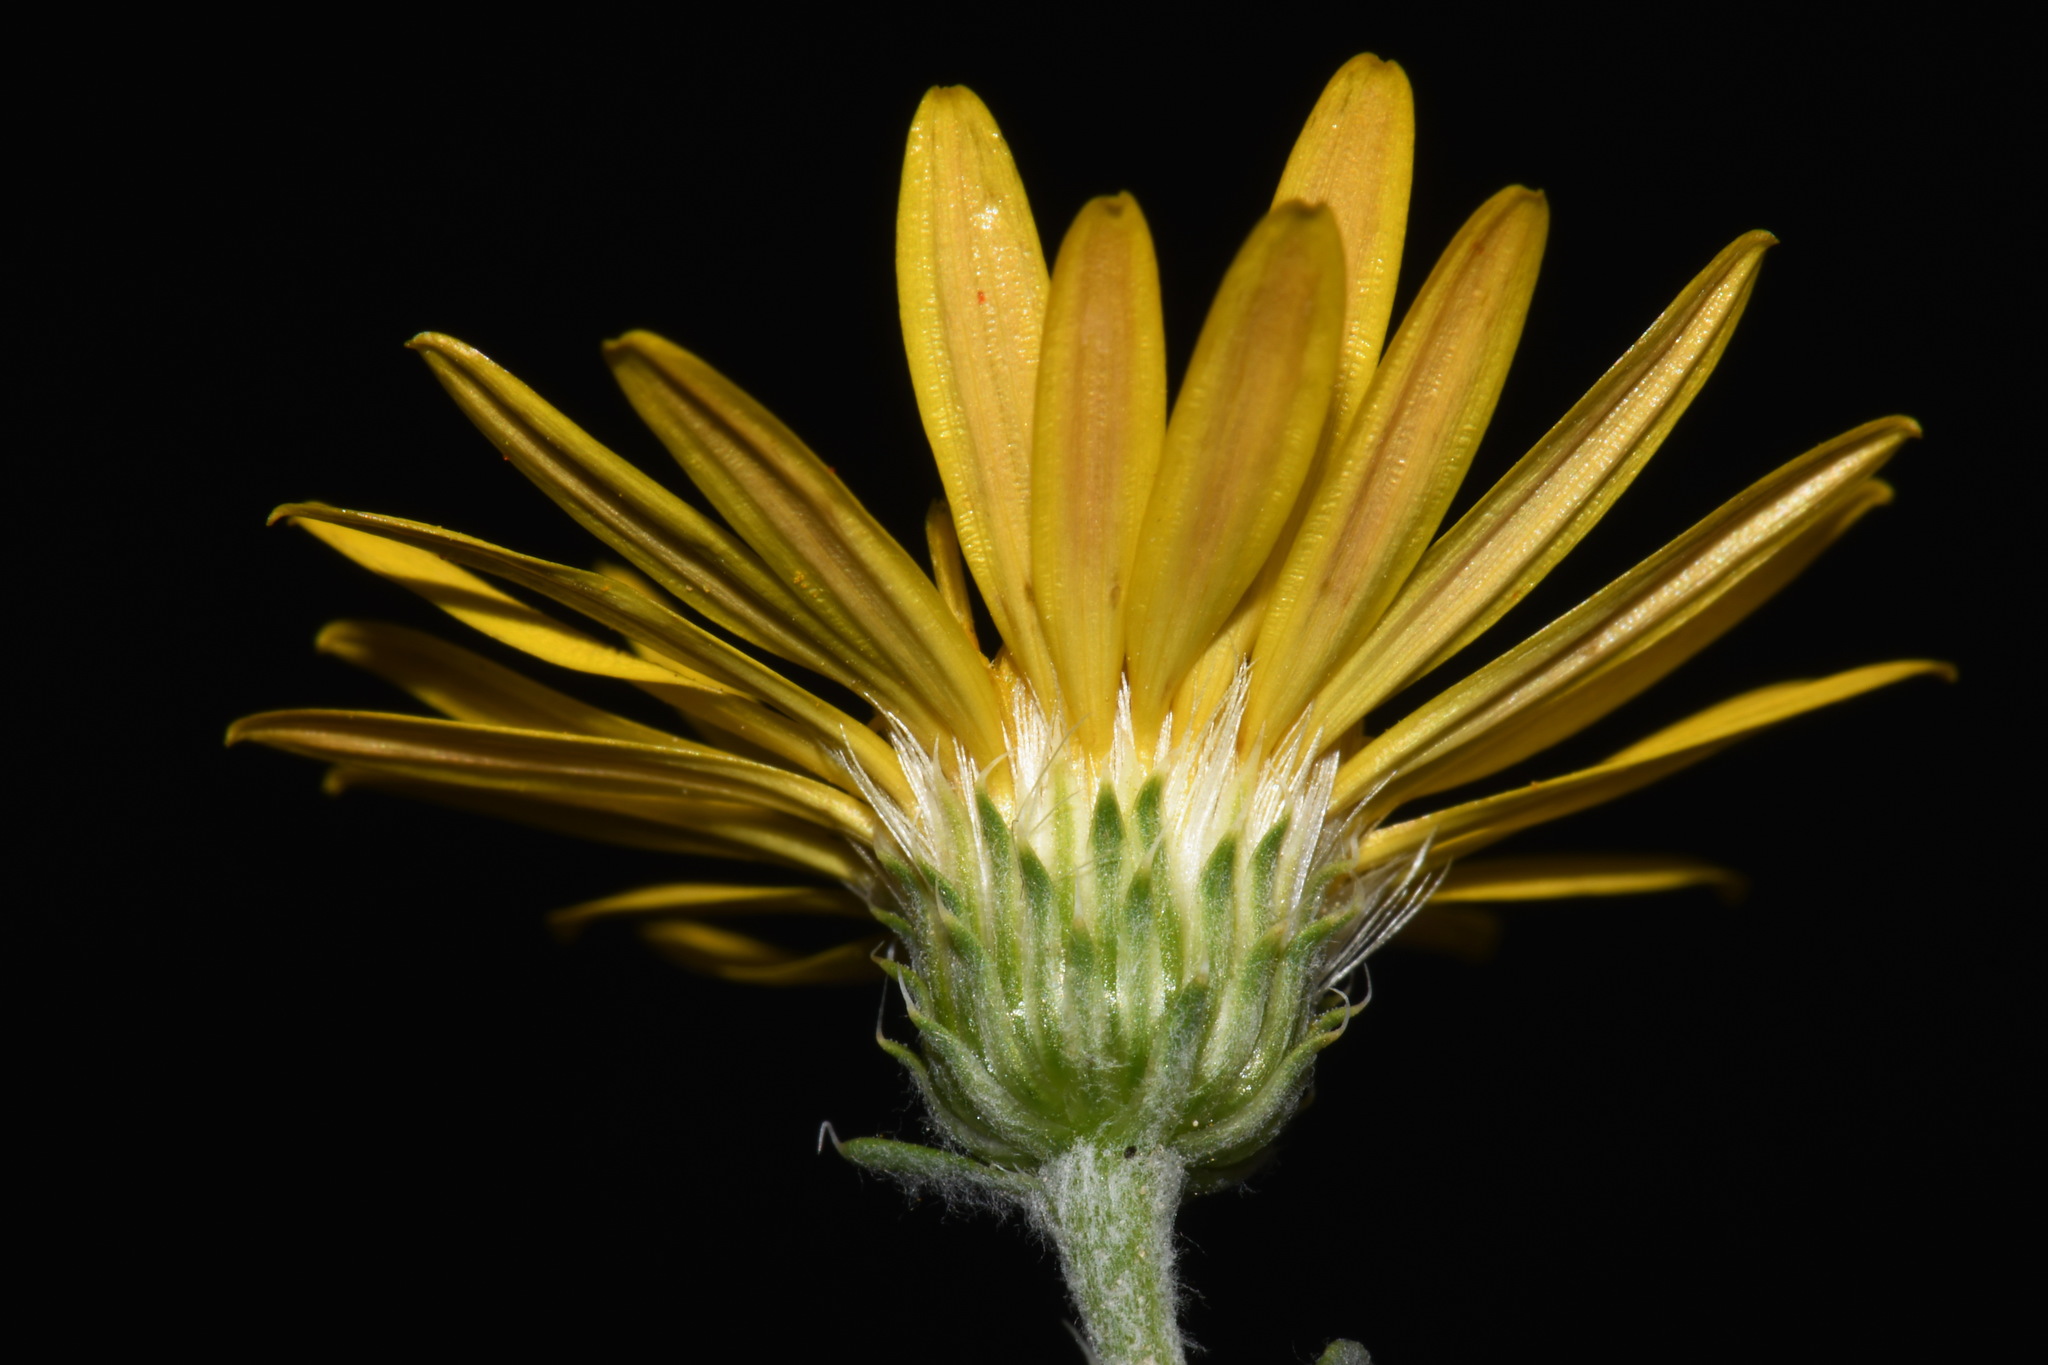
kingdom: Plantae
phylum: Tracheophyta
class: Magnoliopsida
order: Asterales
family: Asteraceae
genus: Xanthisma
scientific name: Xanthisma spinulosum
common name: Spiny goldenweed
